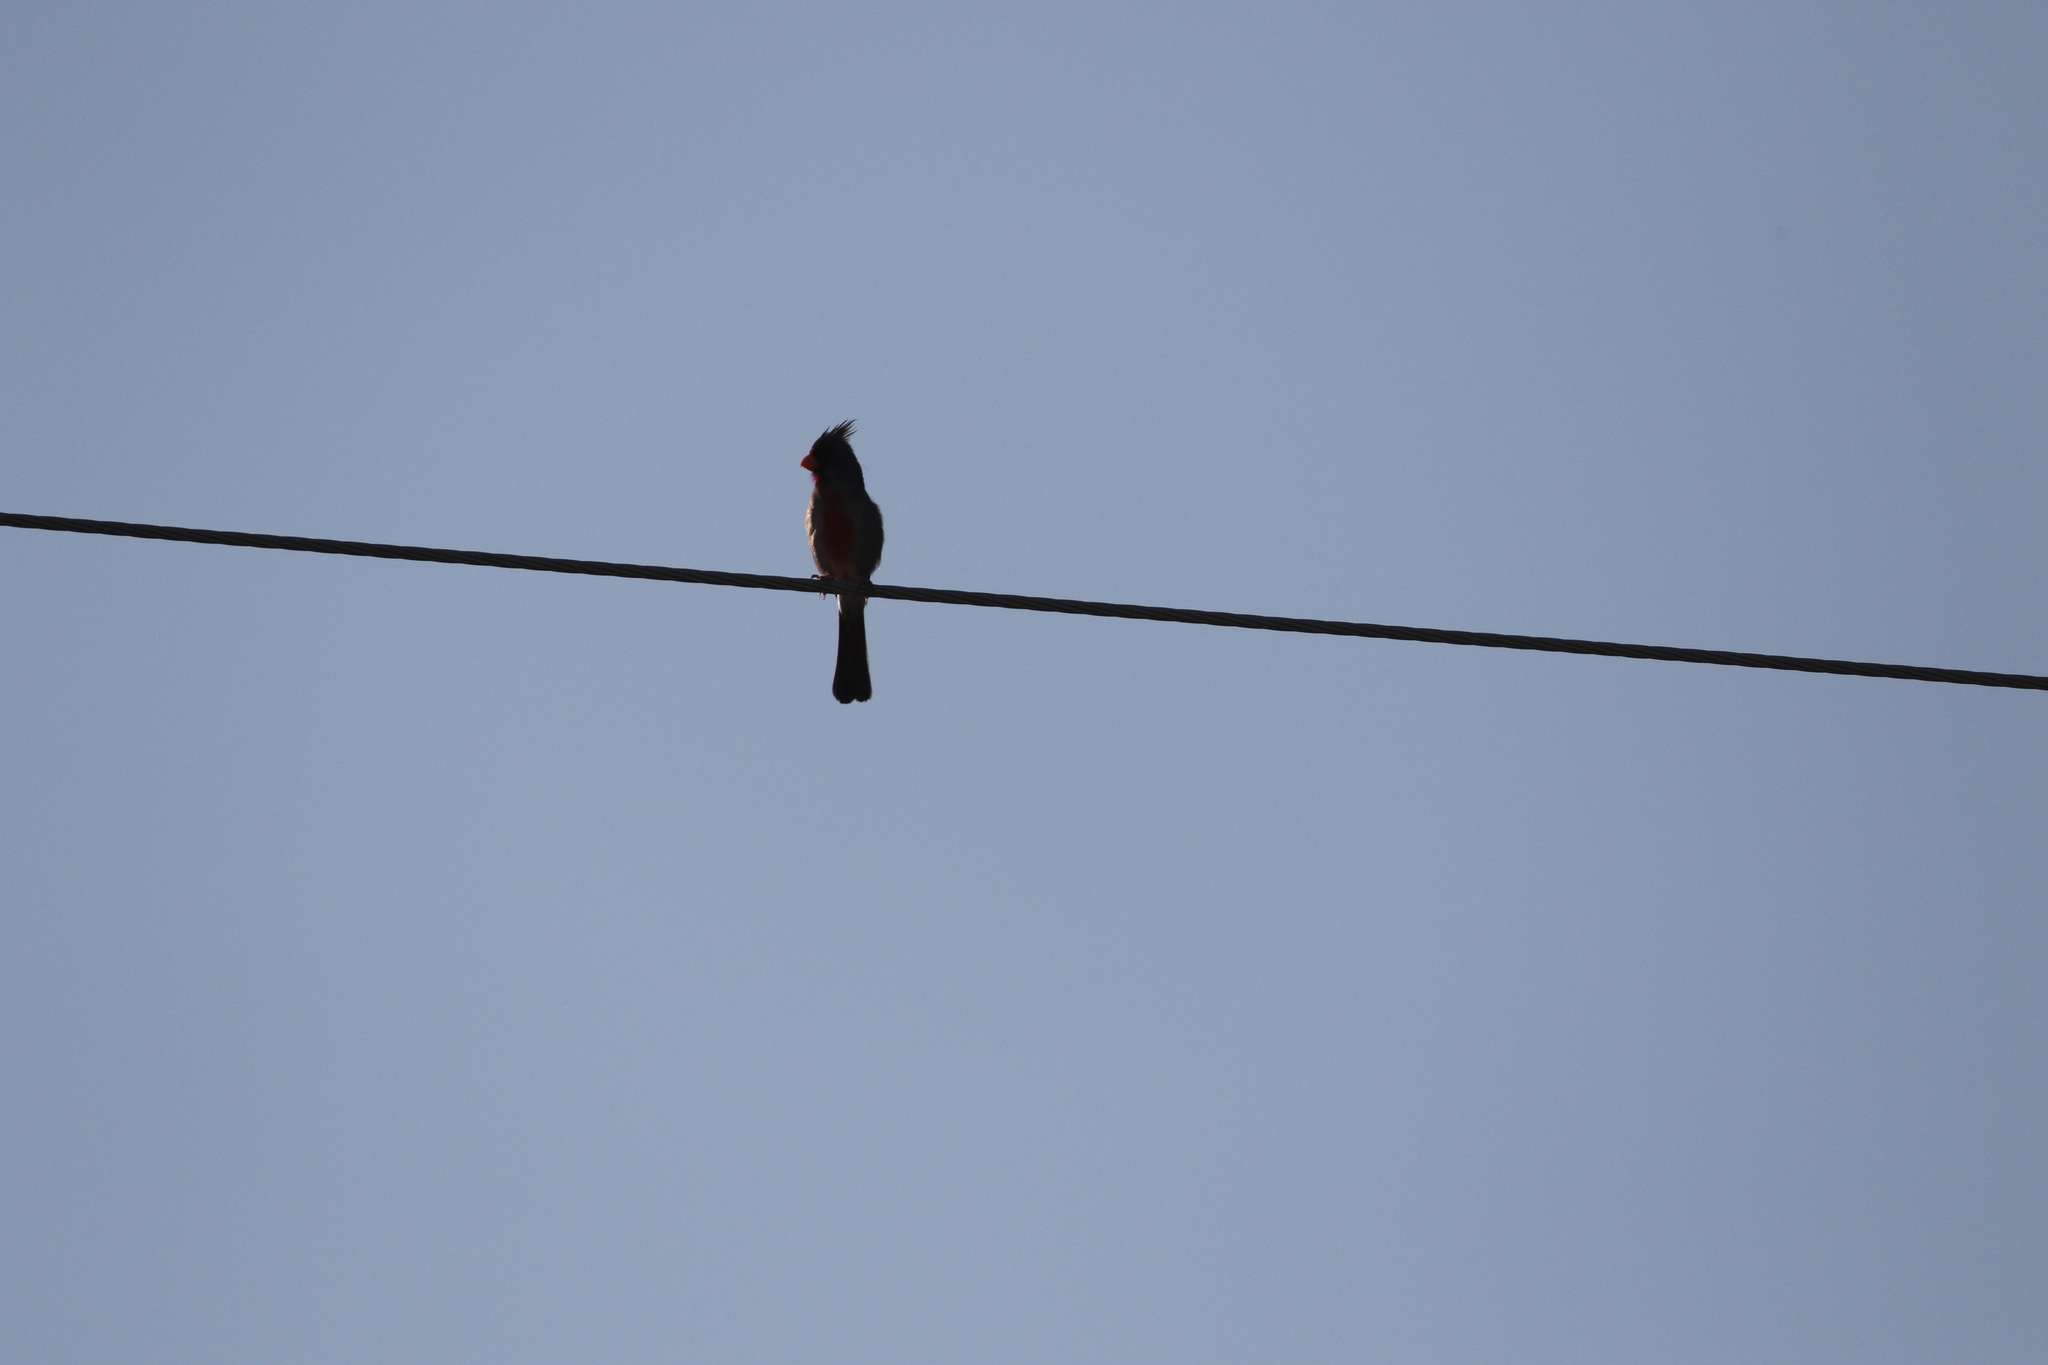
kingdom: Animalia
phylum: Chordata
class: Aves
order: Passeriformes
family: Cardinalidae
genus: Cardinalis
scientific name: Cardinalis sinuatus
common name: Pyrrhuloxia
